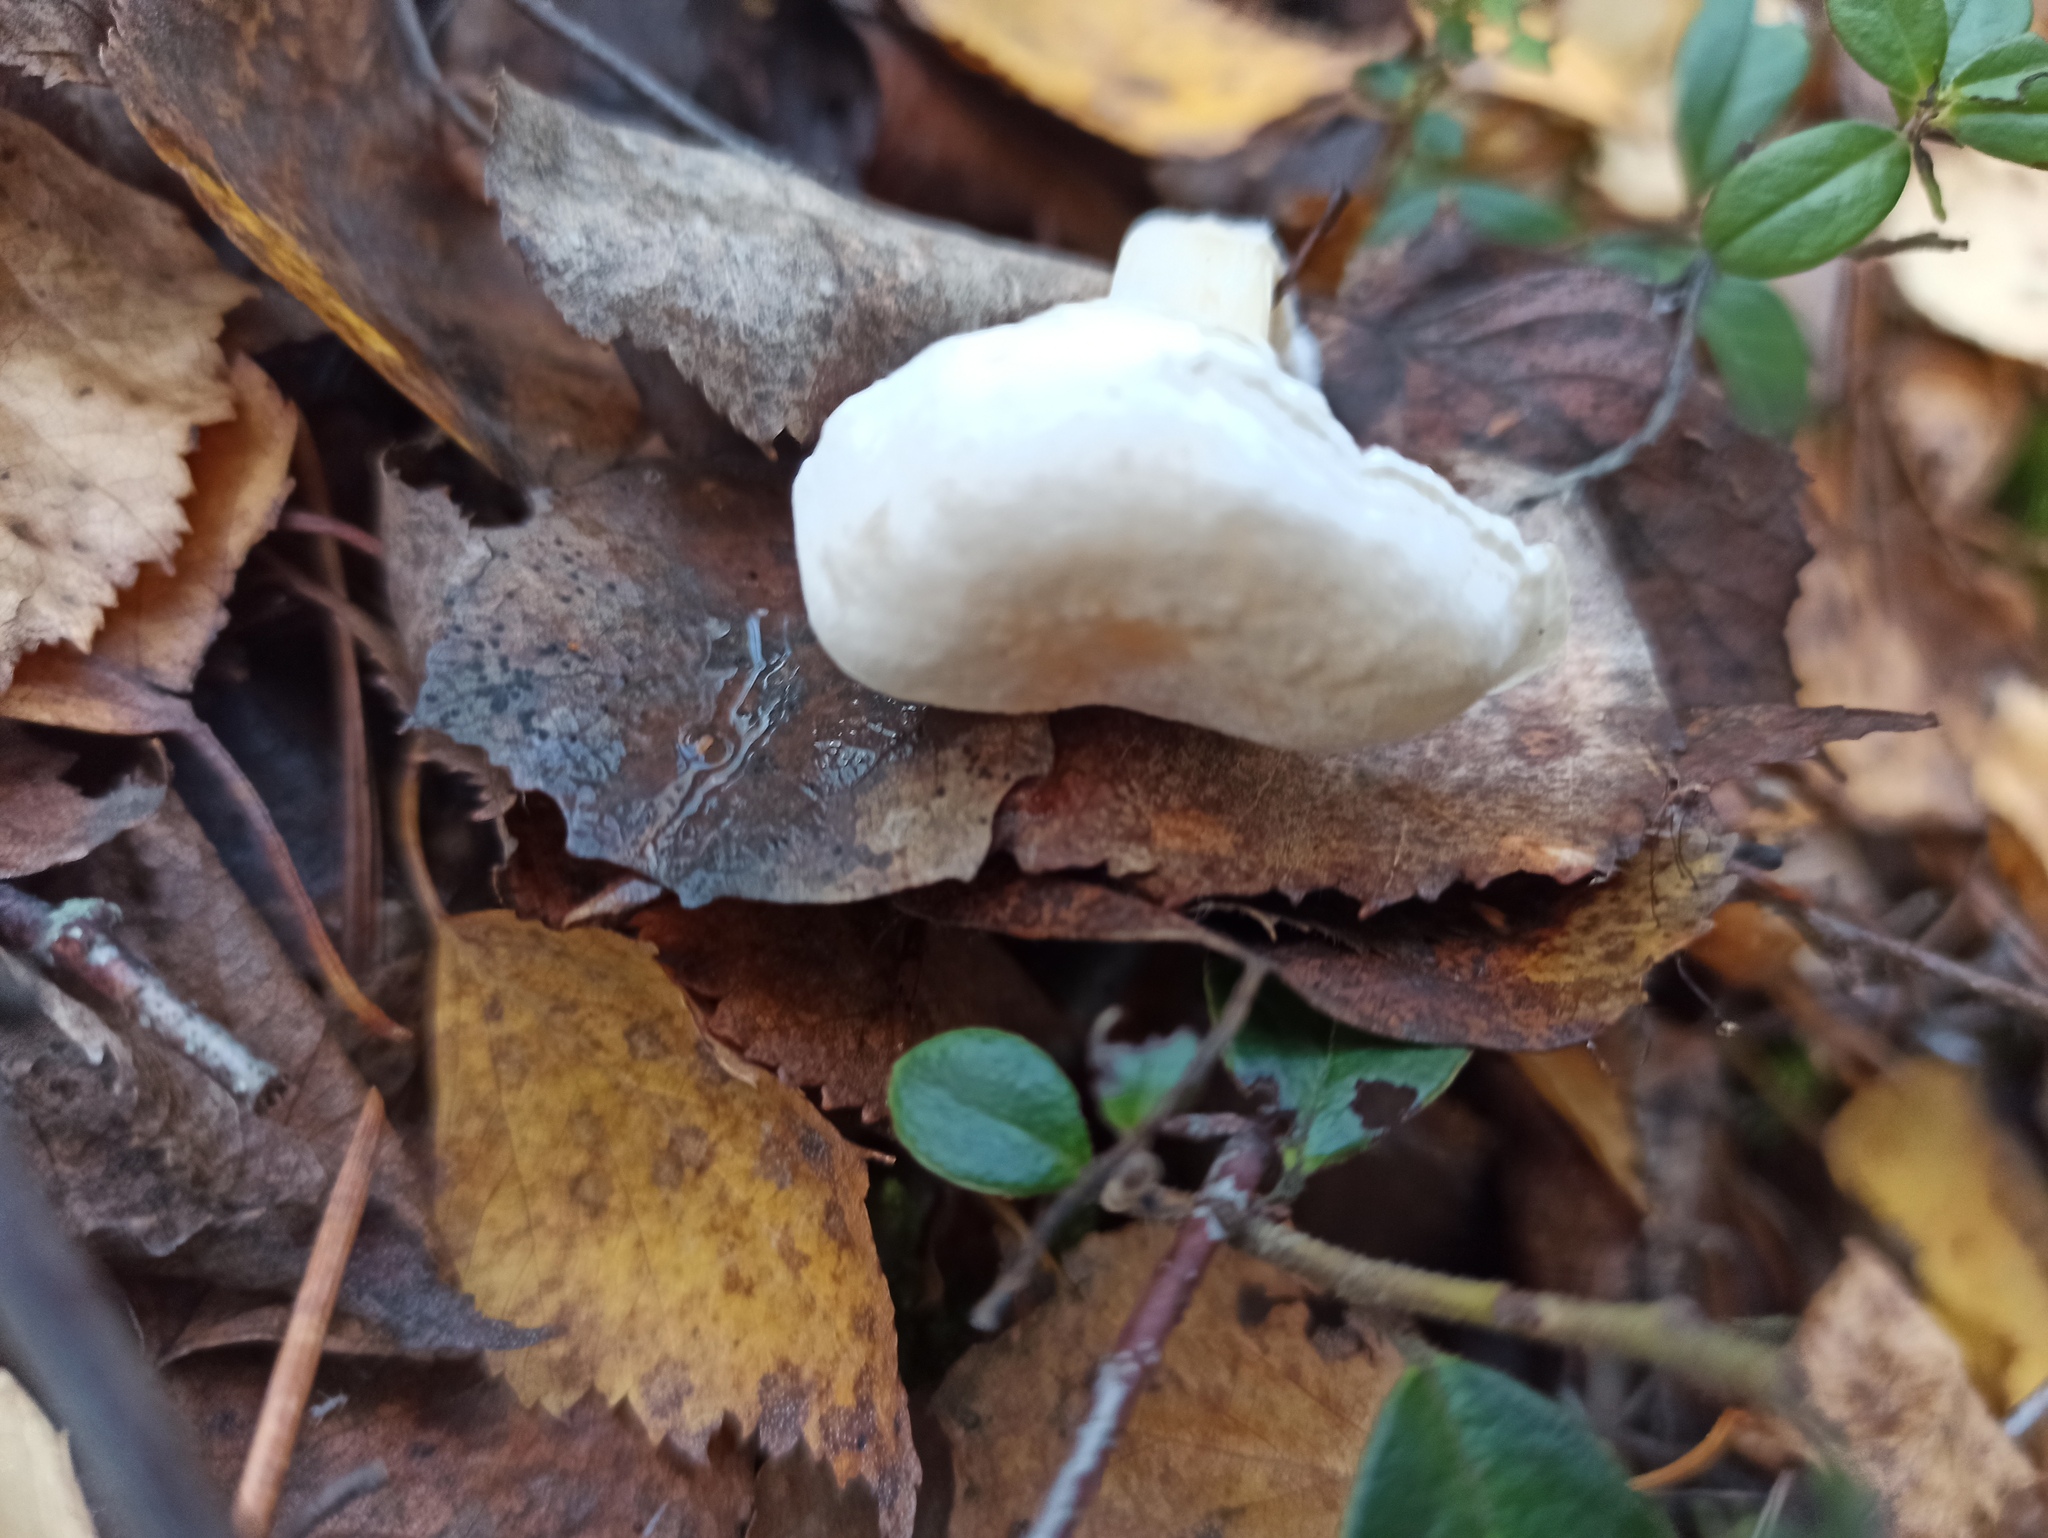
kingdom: Fungi
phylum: Basidiomycota
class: Agaricomycetes
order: Agaricales
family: Entolomataceae
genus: Clitopilus
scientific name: Clitopilus prunulus
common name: The miller
